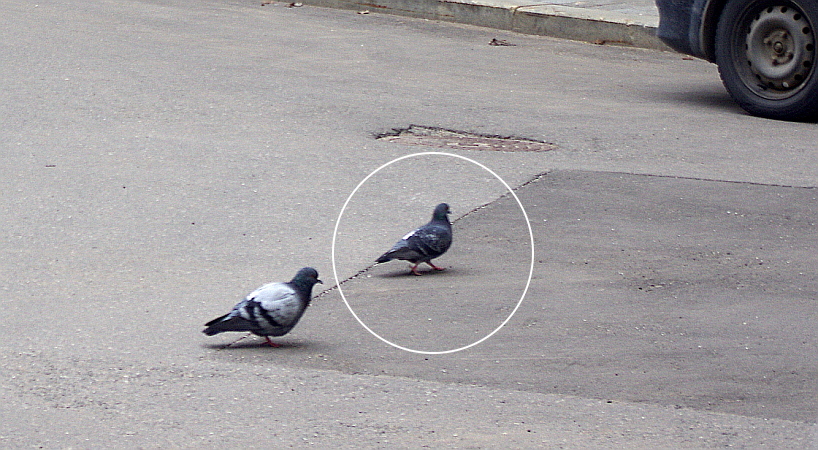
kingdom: Animalia
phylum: Chordata
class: Aves
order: Columbiformes
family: Columbidae
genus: Columba
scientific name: Columba livia
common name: Rock pigeon
